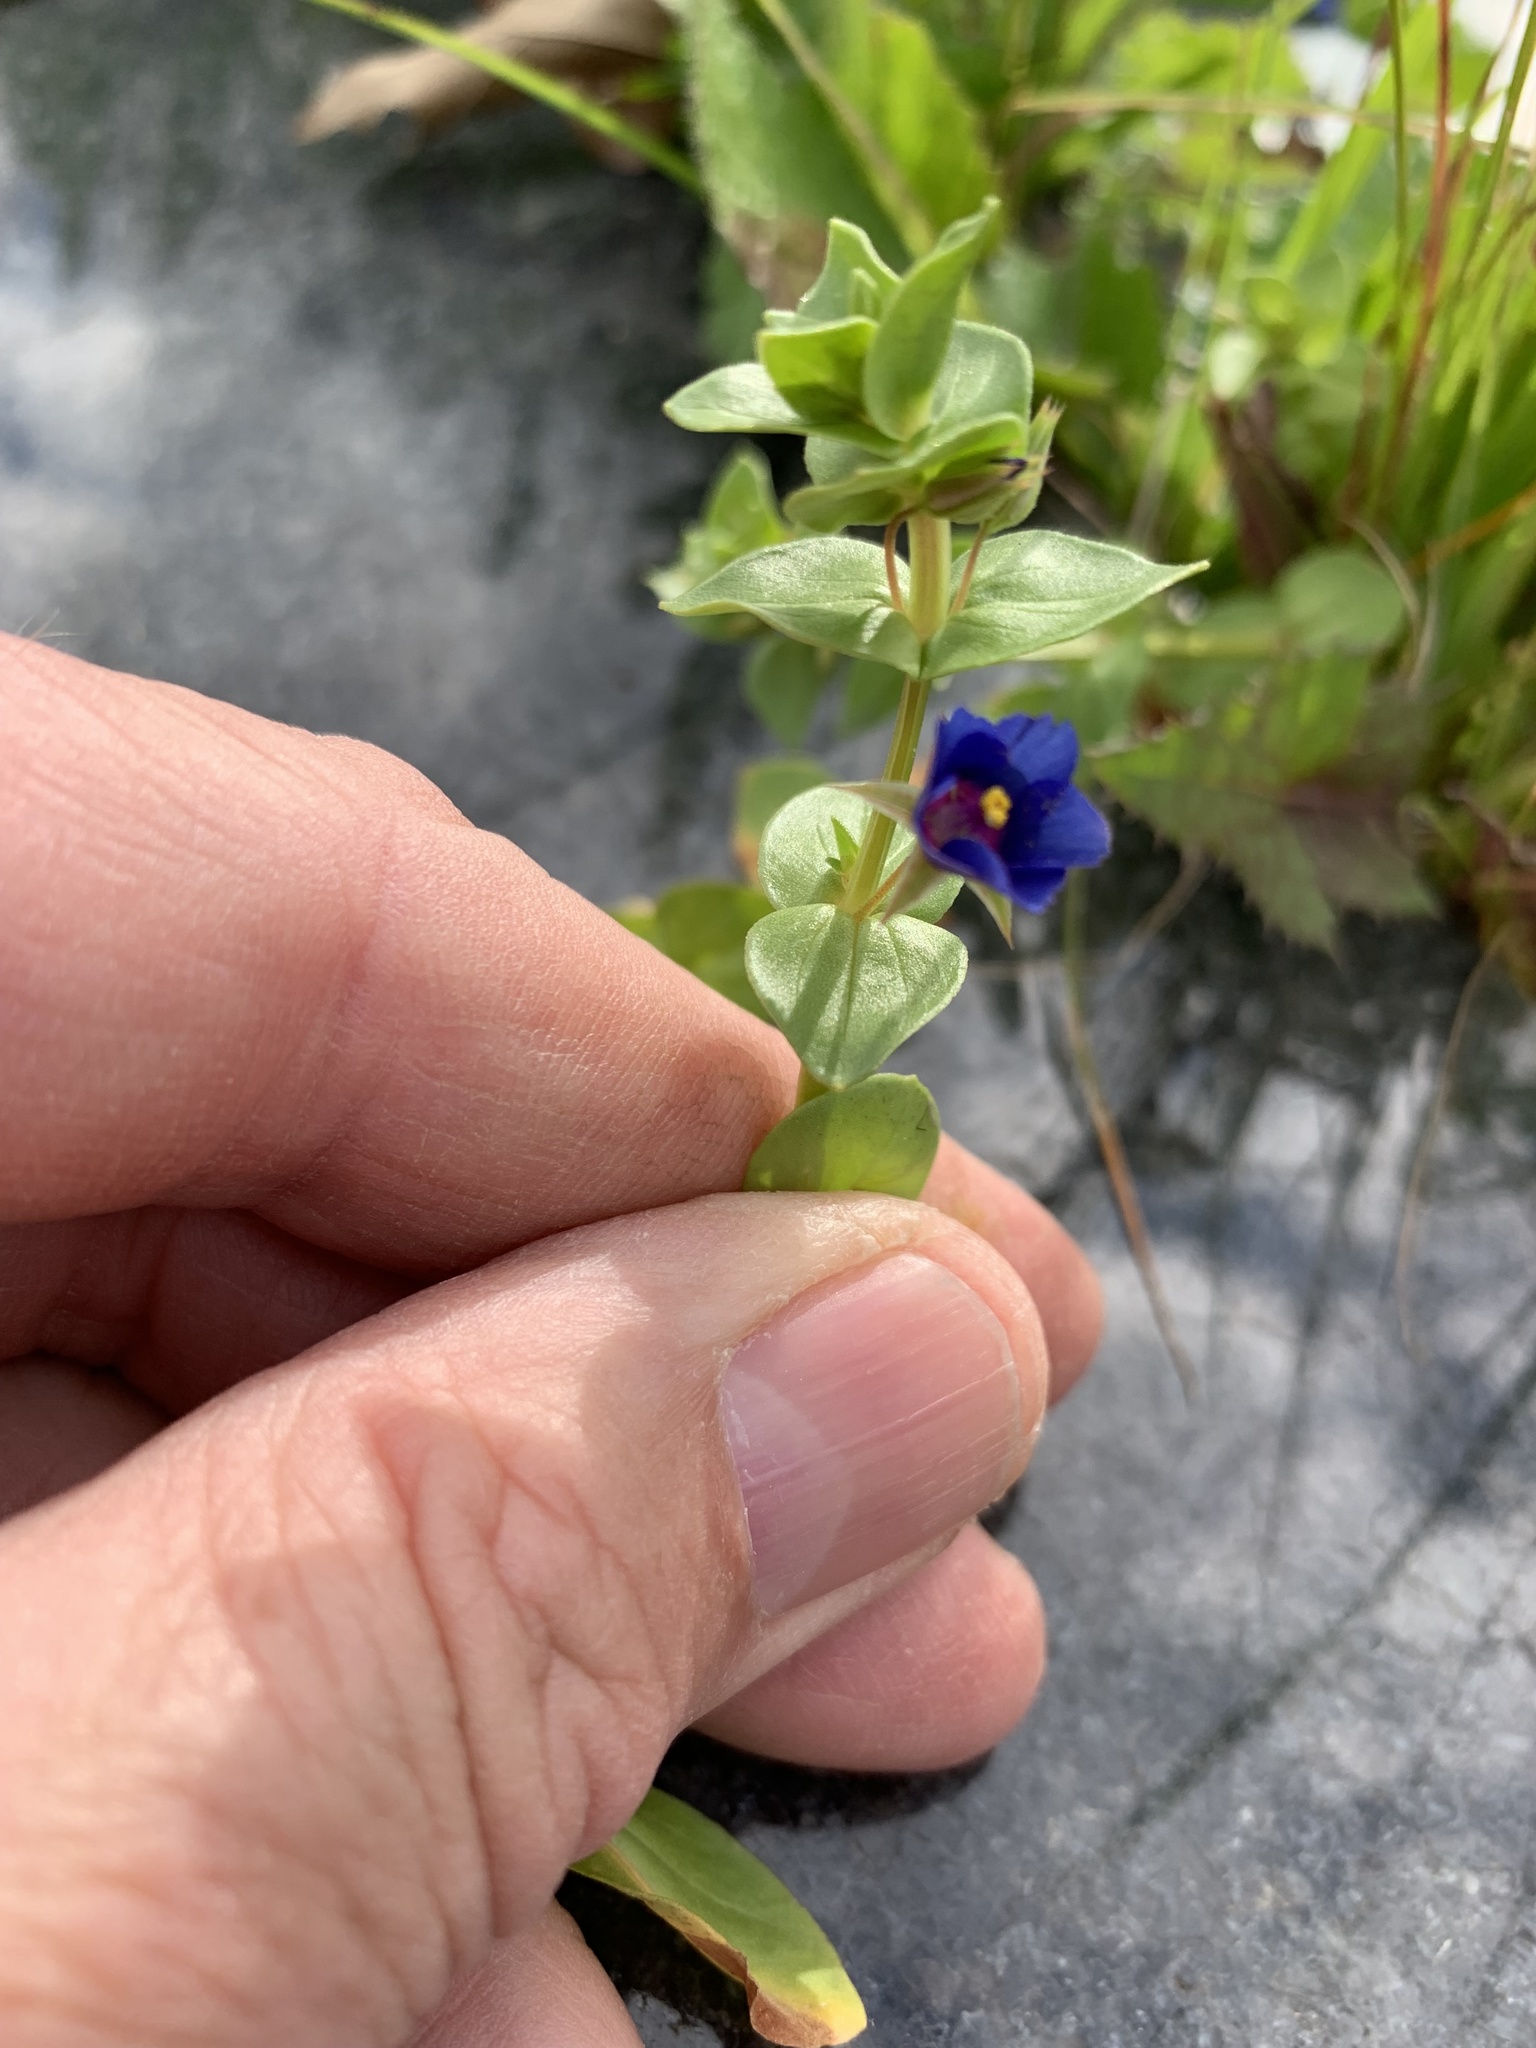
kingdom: Plantae
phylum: Tracheophyta
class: Magnoliopsida
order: Ericales
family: Primulaceae
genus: Lysimachia
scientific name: Lysimachia loeflingii
